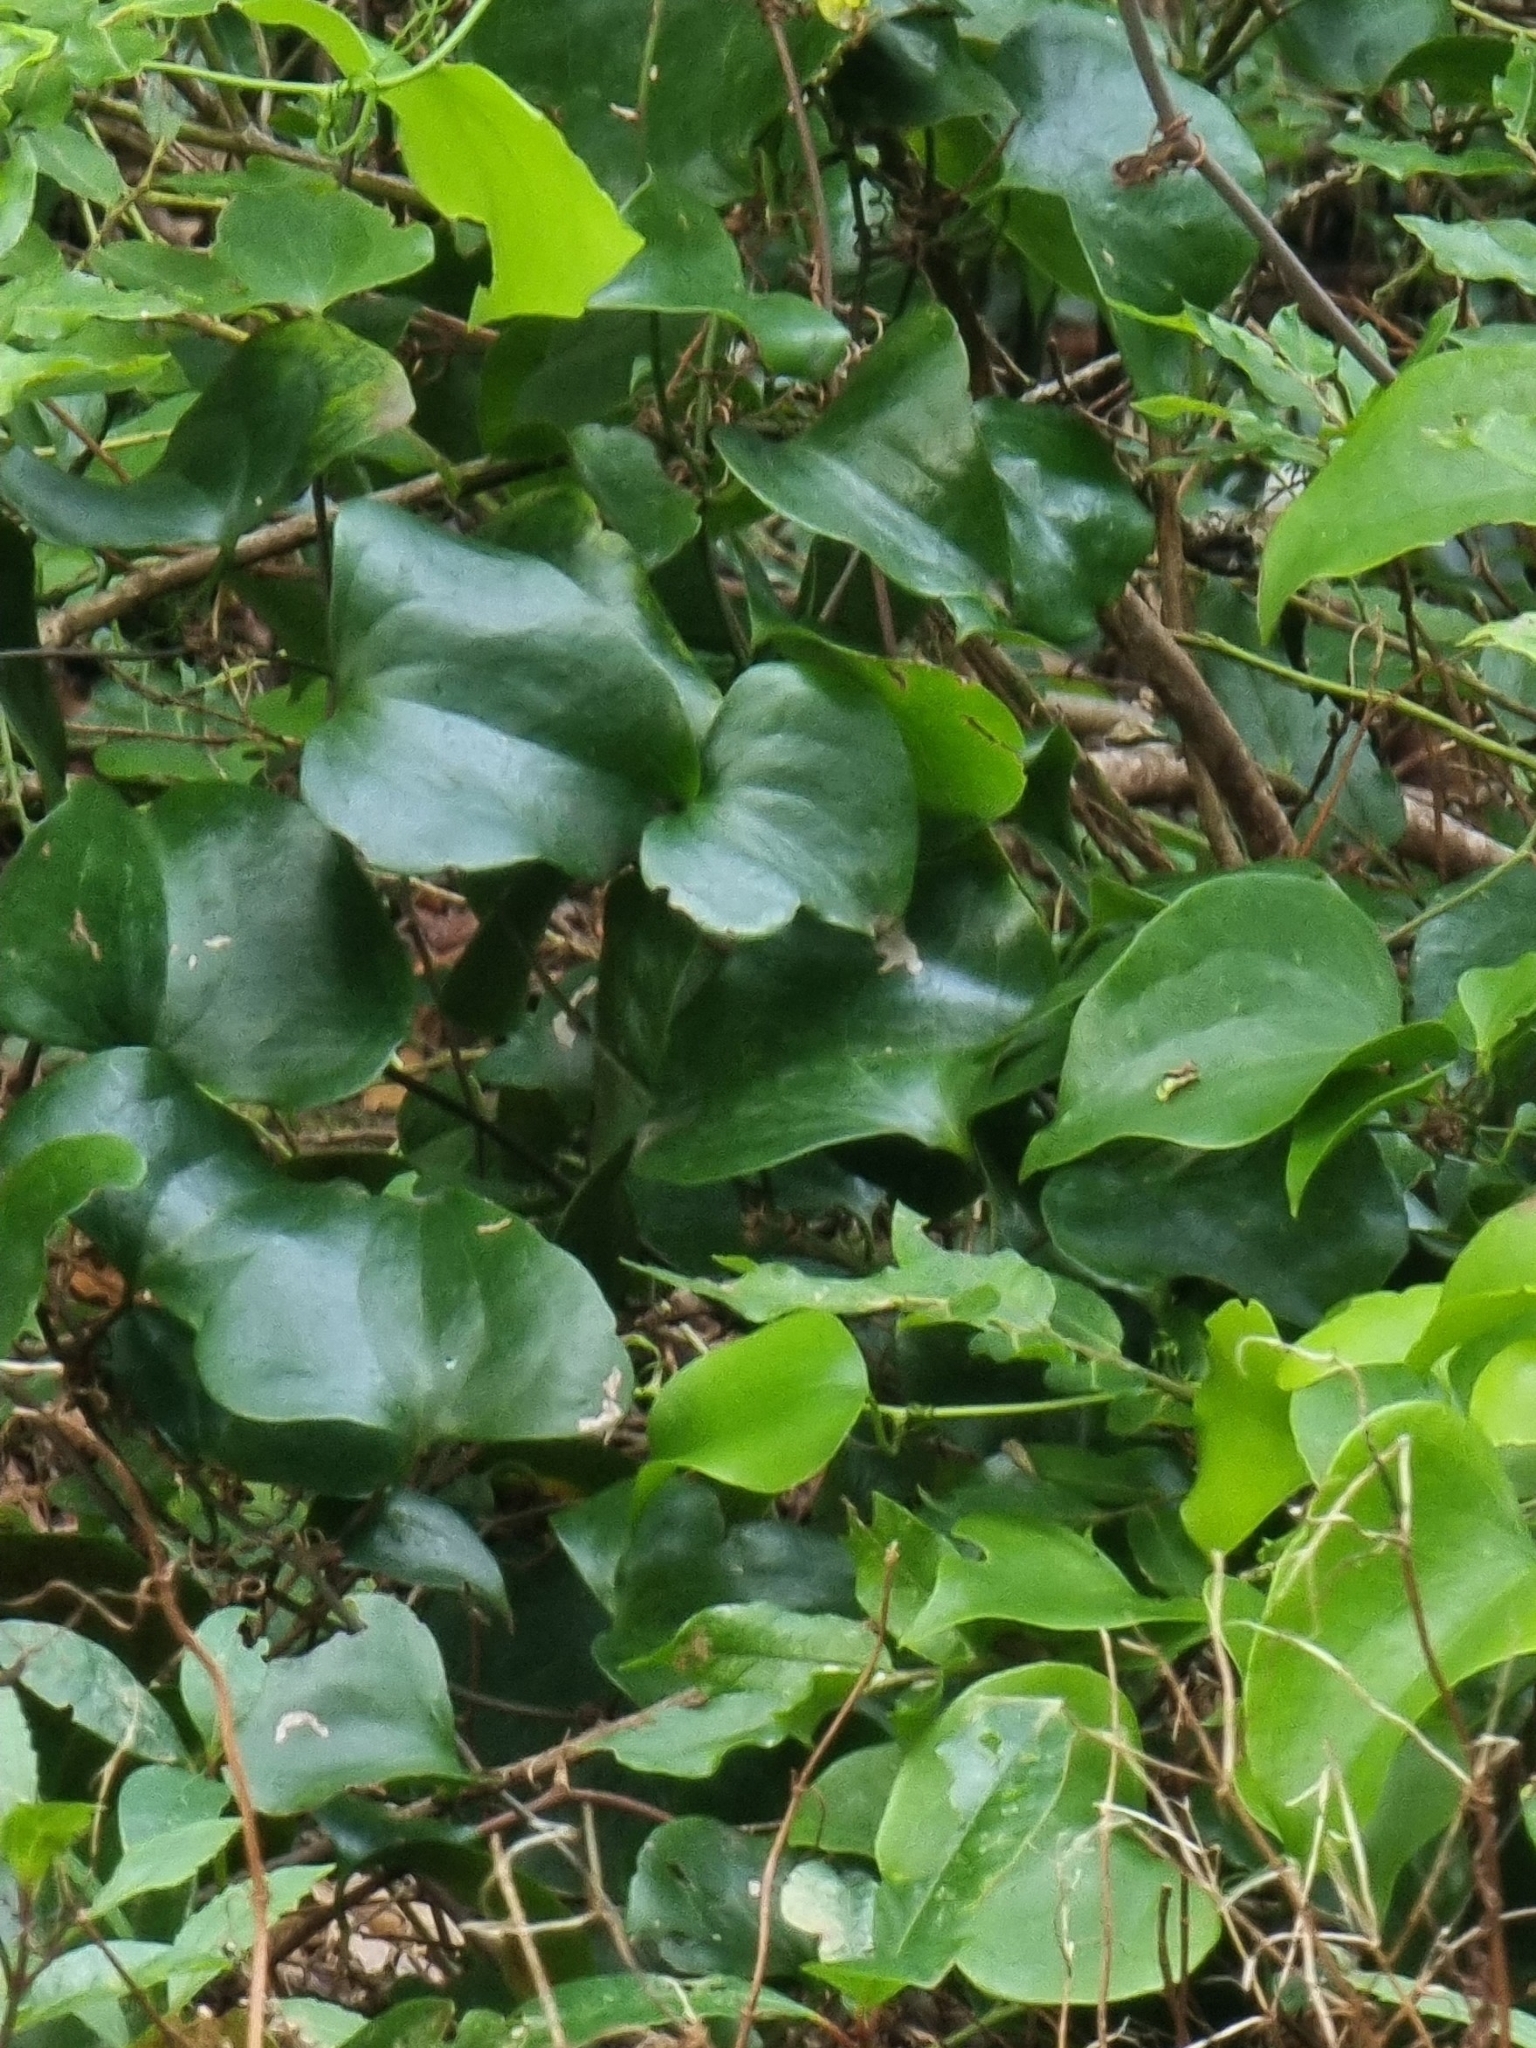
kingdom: Plantae
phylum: Tracheophyta
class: Liliopsida
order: Liliales
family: Smilacaceae
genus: Smilax
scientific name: Smilax aspera
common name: Common smilax
